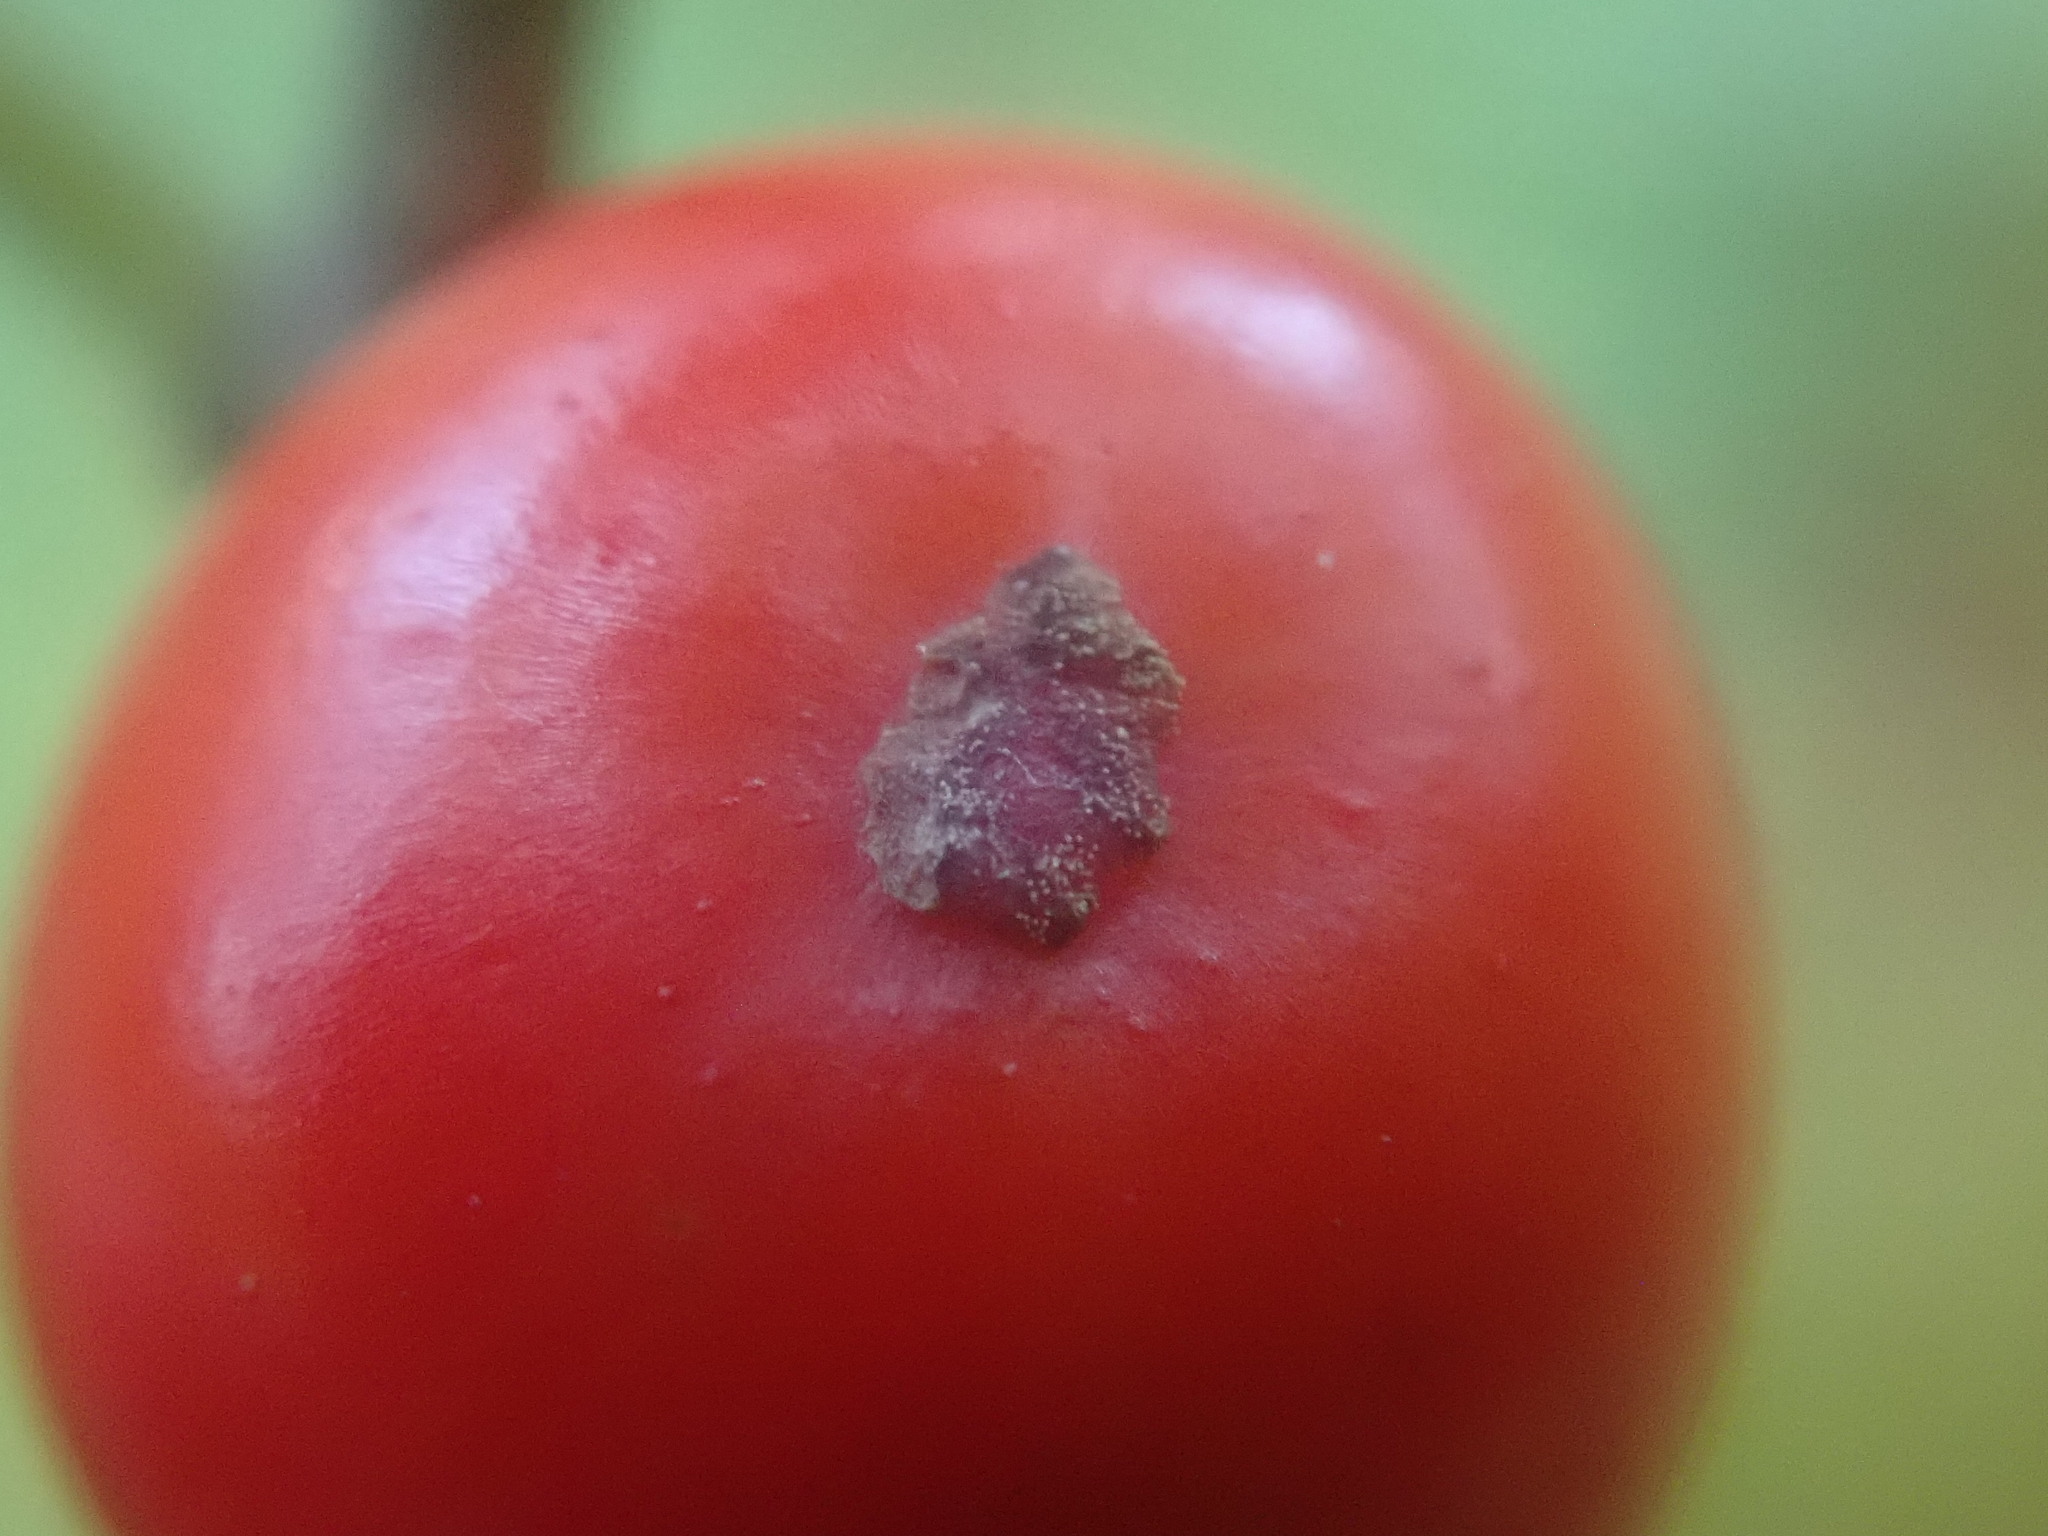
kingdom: Plantae
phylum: Tracheophyta
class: Magnoliopsida
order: Aquifoliales
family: Aquifoliaceae
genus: Ilex
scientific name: Ilex verticillata
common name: Virginia winterberry
